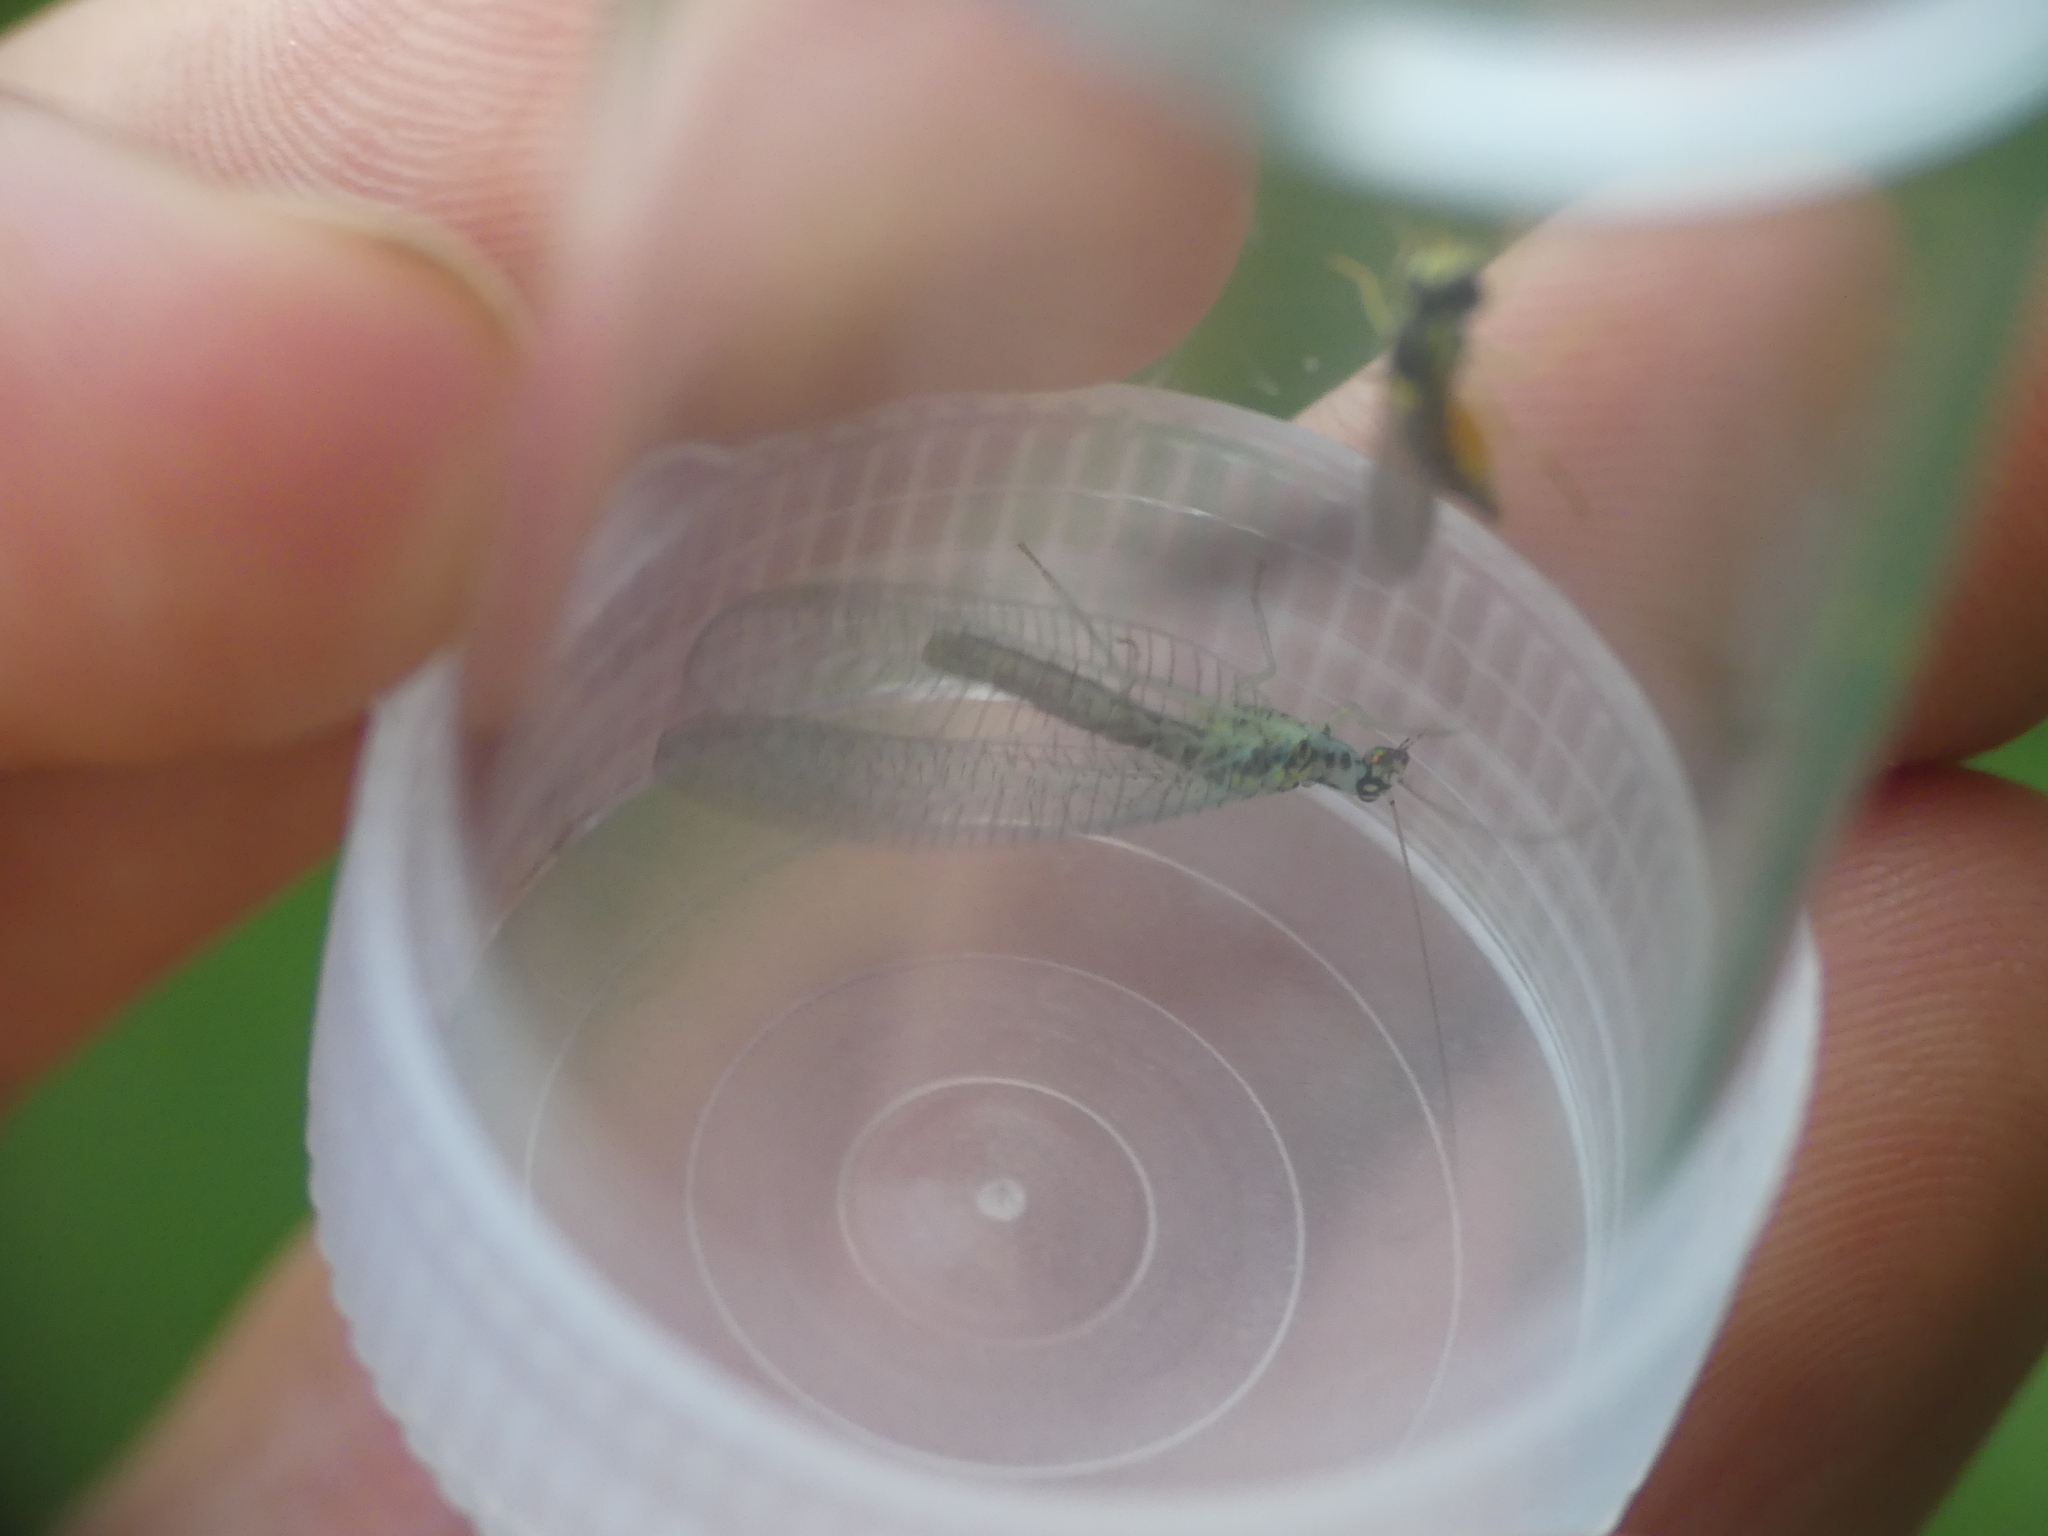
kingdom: Animalia
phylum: Arthropoda
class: Insecta
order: Neuroptera
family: Chrysopidae
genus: Chrysopa
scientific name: Chrysopa perla
